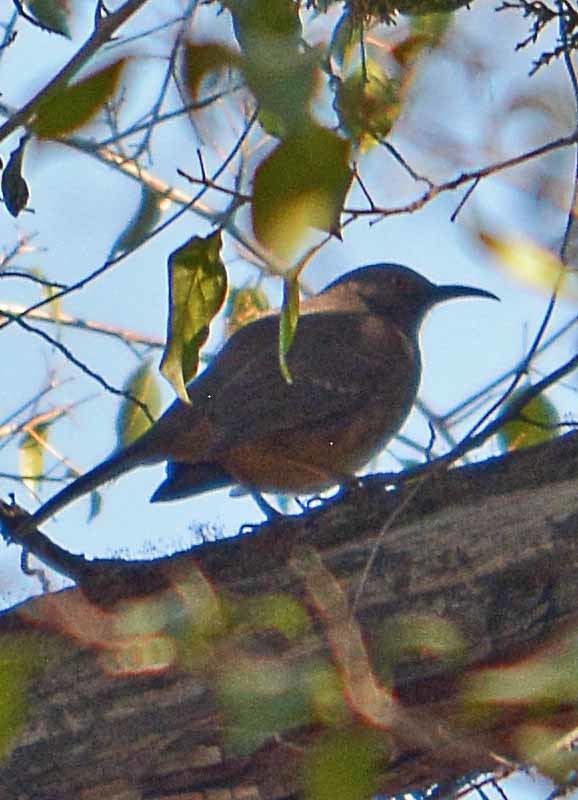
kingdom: Animalia
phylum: Chordata
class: Aves
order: Passeriformes
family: Mimidae
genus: Toxostoma
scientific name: Toxostoma curvirostre
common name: Curve-billed thrasher
